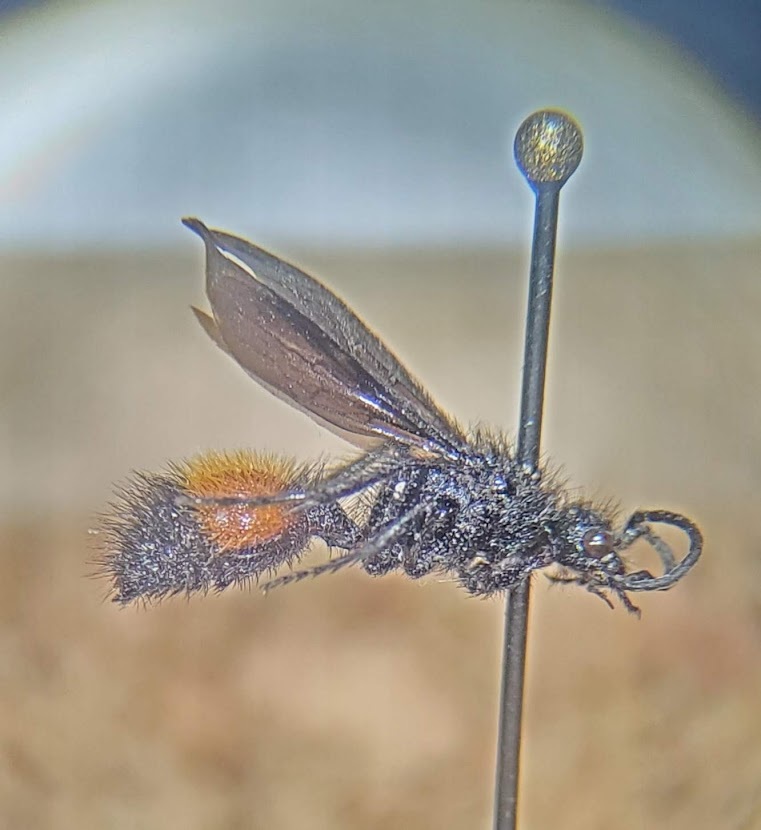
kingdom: Animalia
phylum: Arthropoda
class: Insecta
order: Hymenoptera
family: Mutillidae
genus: Dasymutilla
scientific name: Dasymutilla
